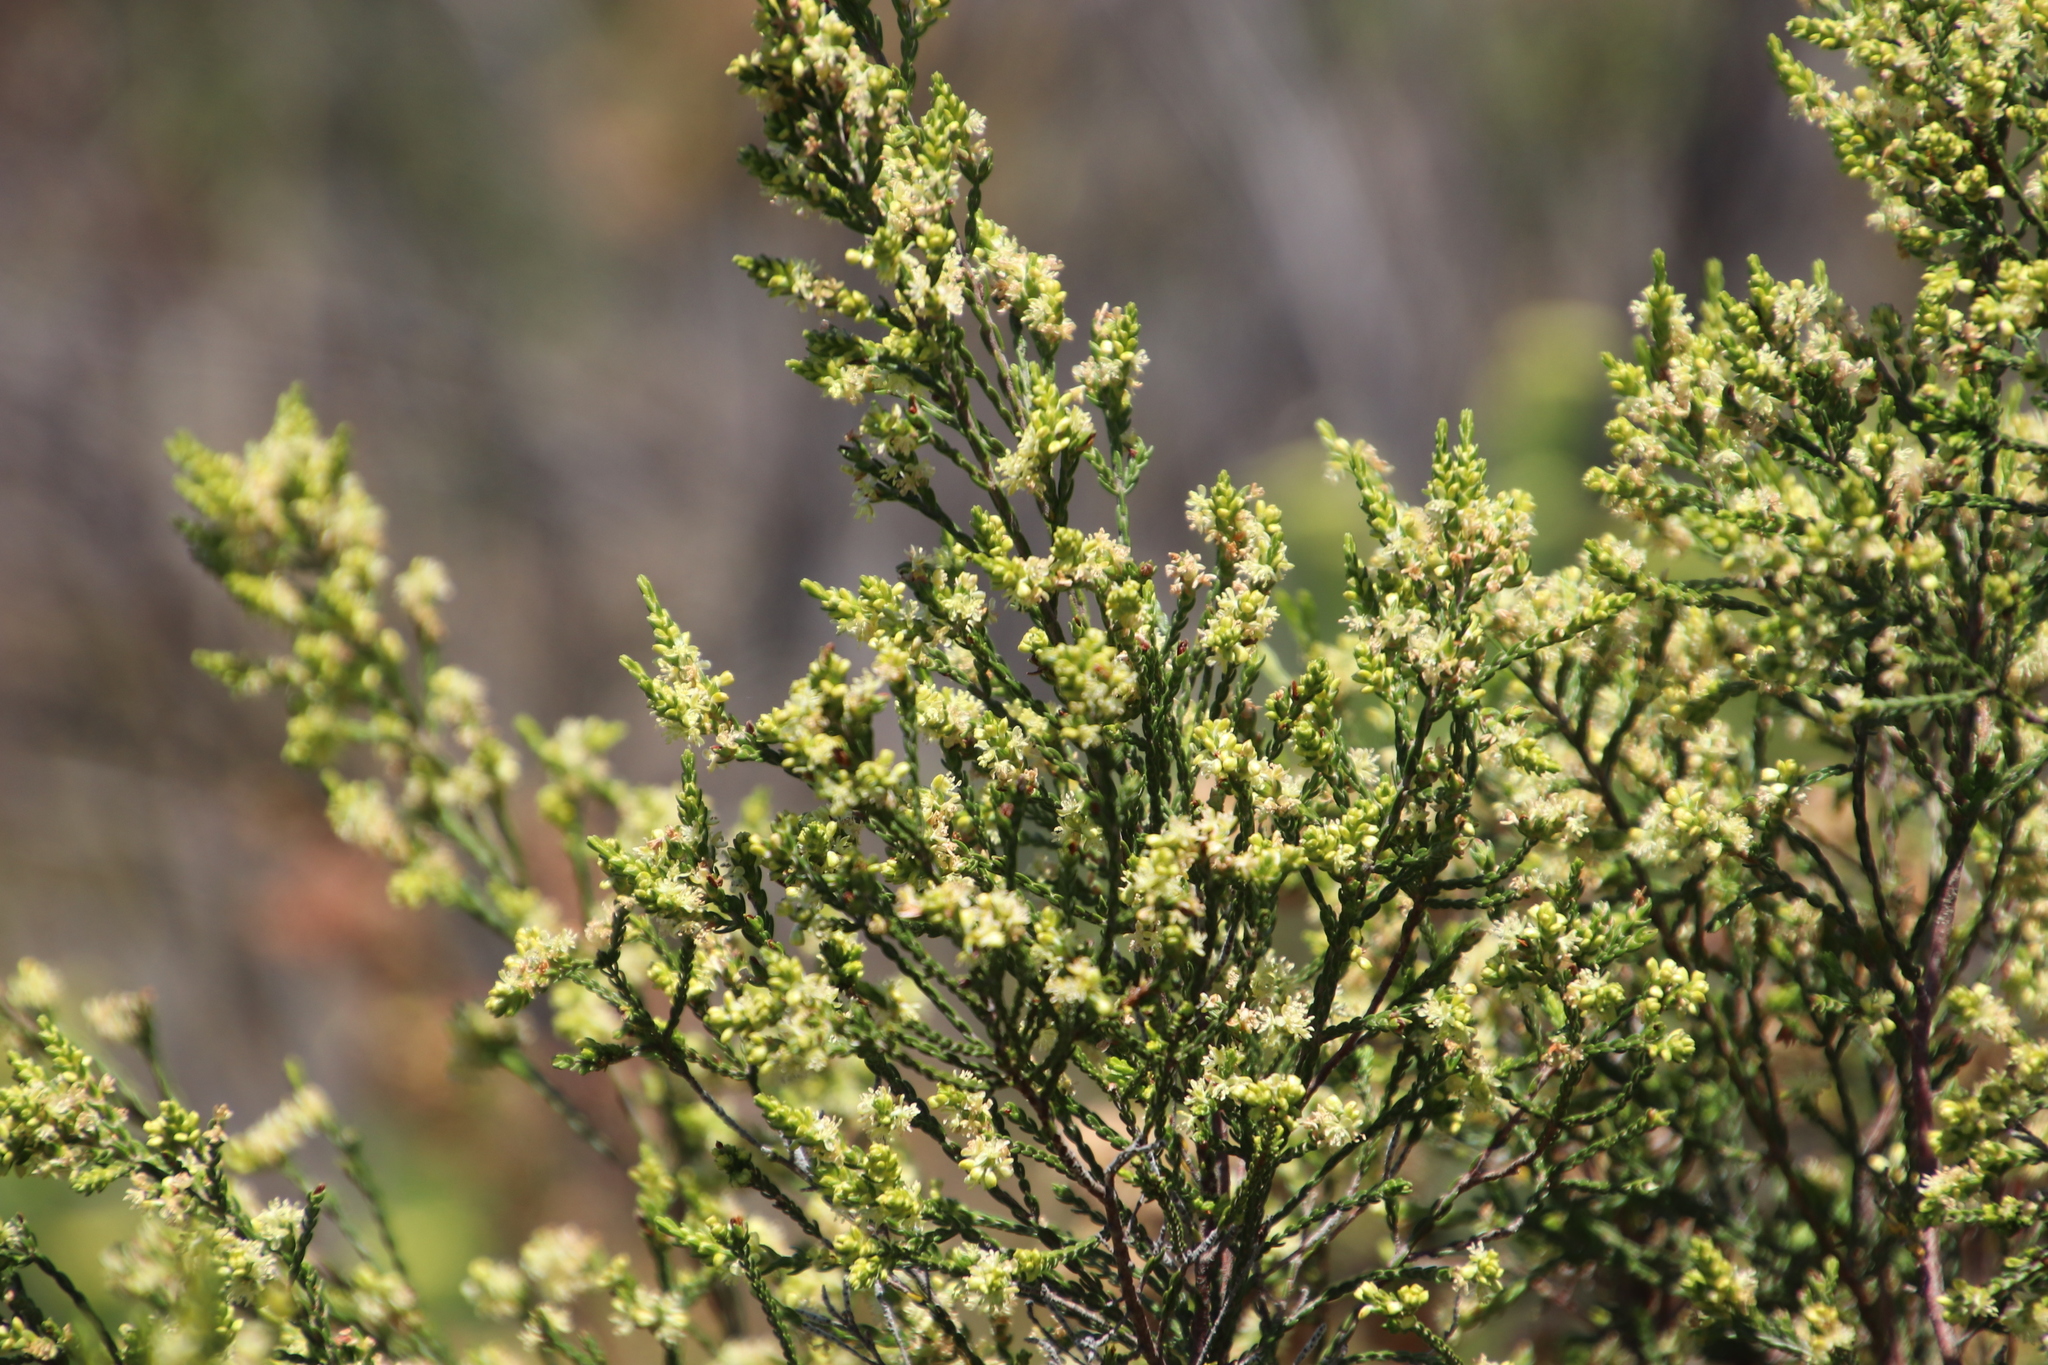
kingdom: Plantae
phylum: Tracheophyta
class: Magnoliopsida
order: Malvales
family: Thymelaeaceae
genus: Passerina
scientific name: Passerina corymbosa
